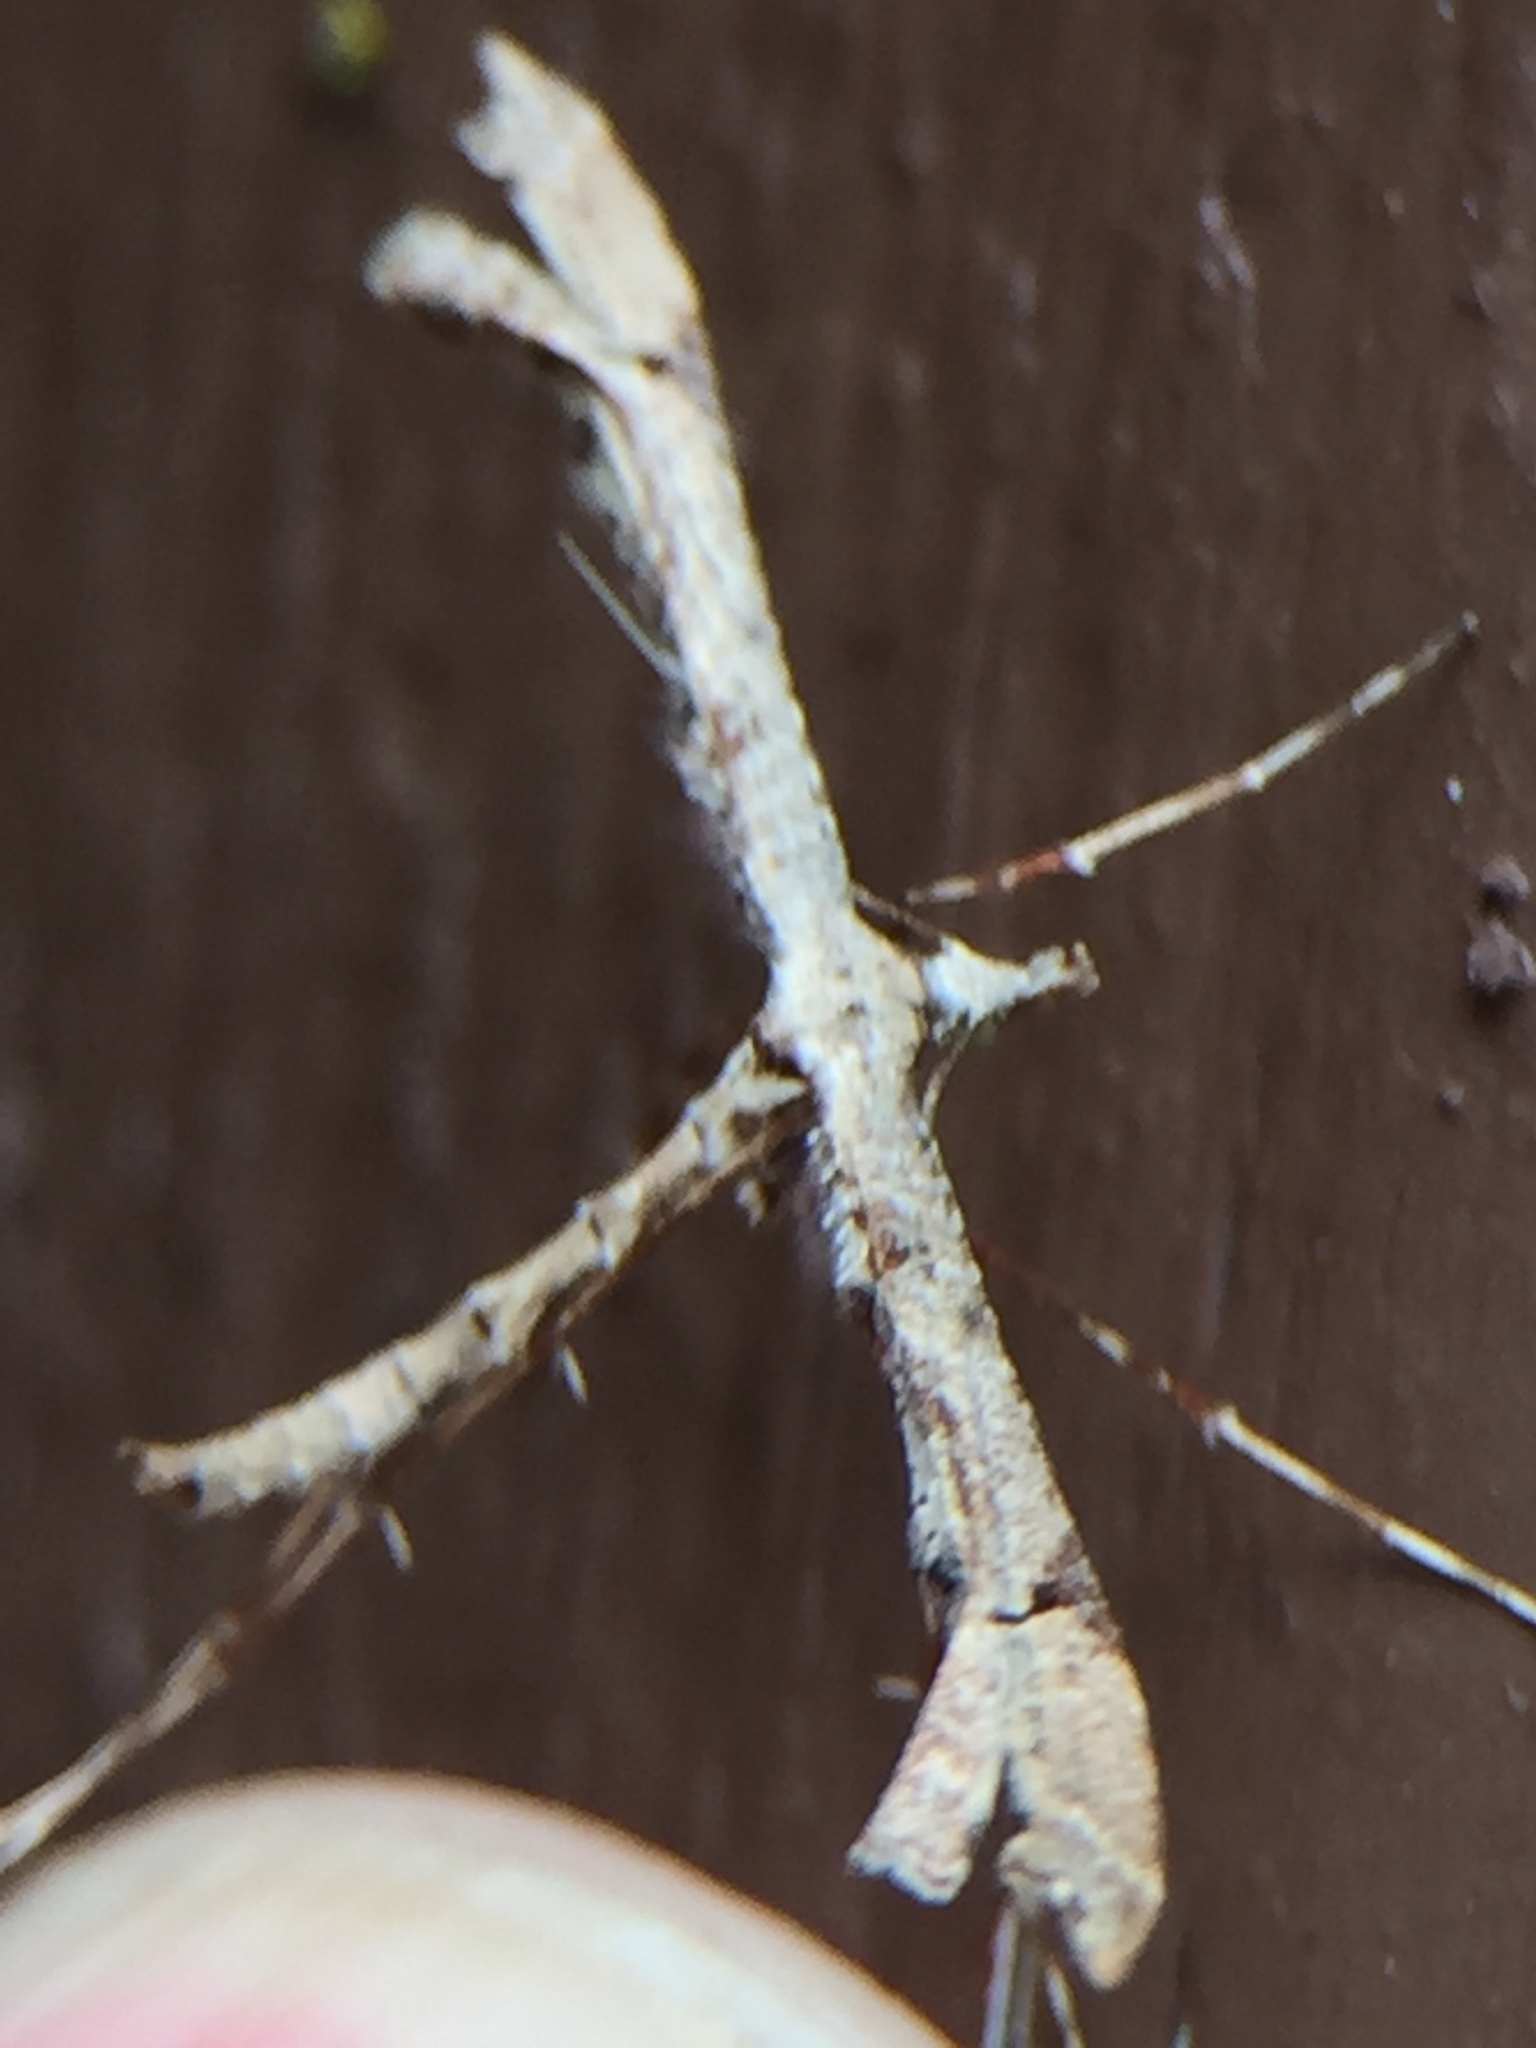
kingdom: Animalia
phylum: Arthropoda
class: Insecta
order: Lepidoptera
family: Pterophoridae
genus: Amblyptilia
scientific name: Amblyptilia repletalis
